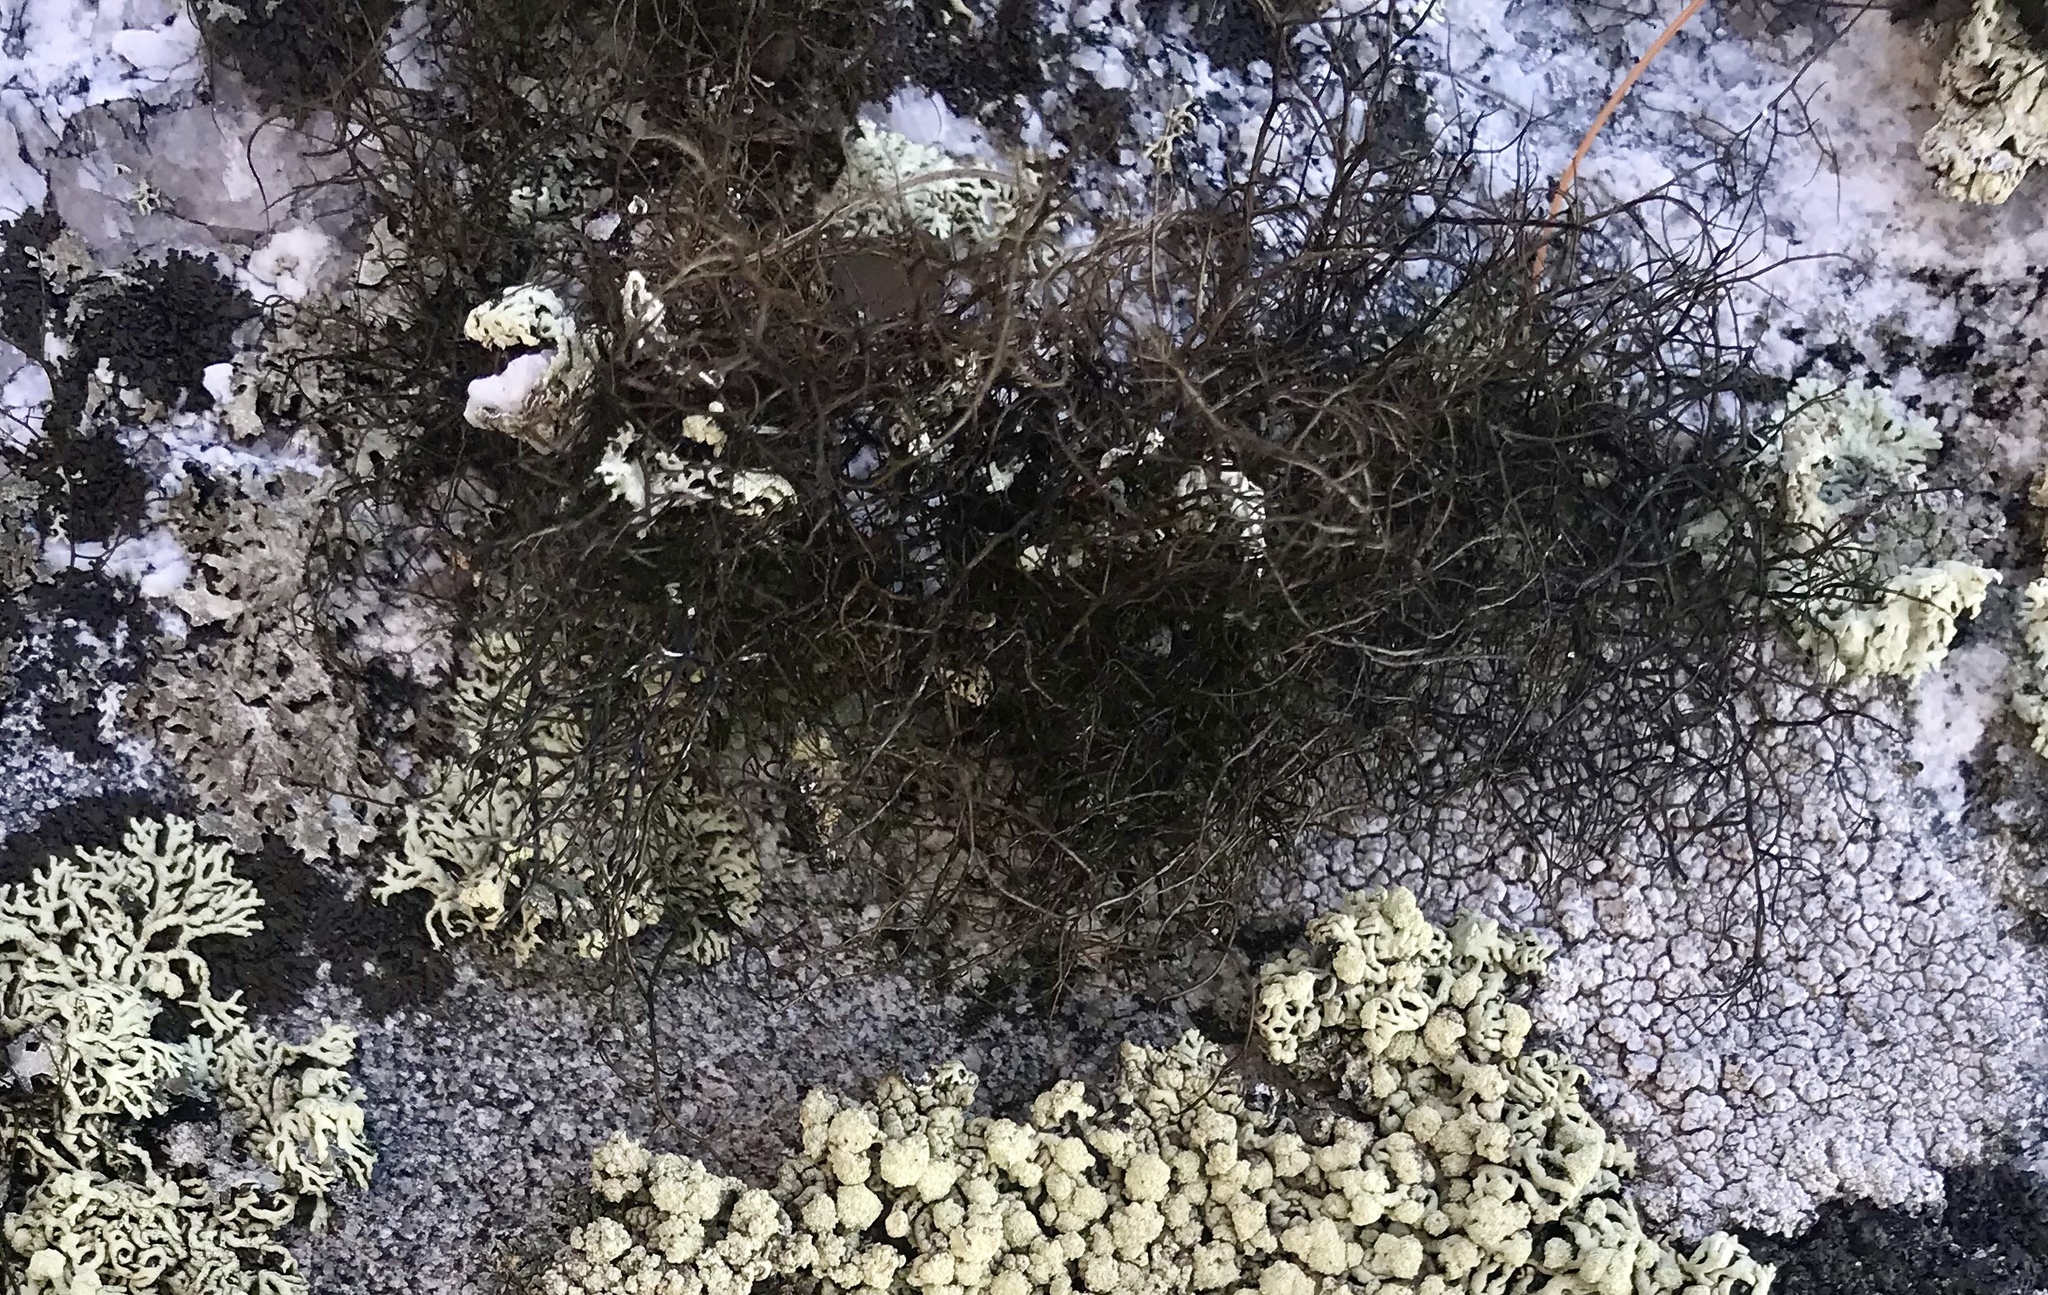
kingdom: Fungi
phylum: Ascomycota
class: Lecanoromycetes
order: Lecanorales
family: Parmeliaceae
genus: Bryoria
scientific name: Bryoria trichodes
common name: Inelegant horsehair lichen
